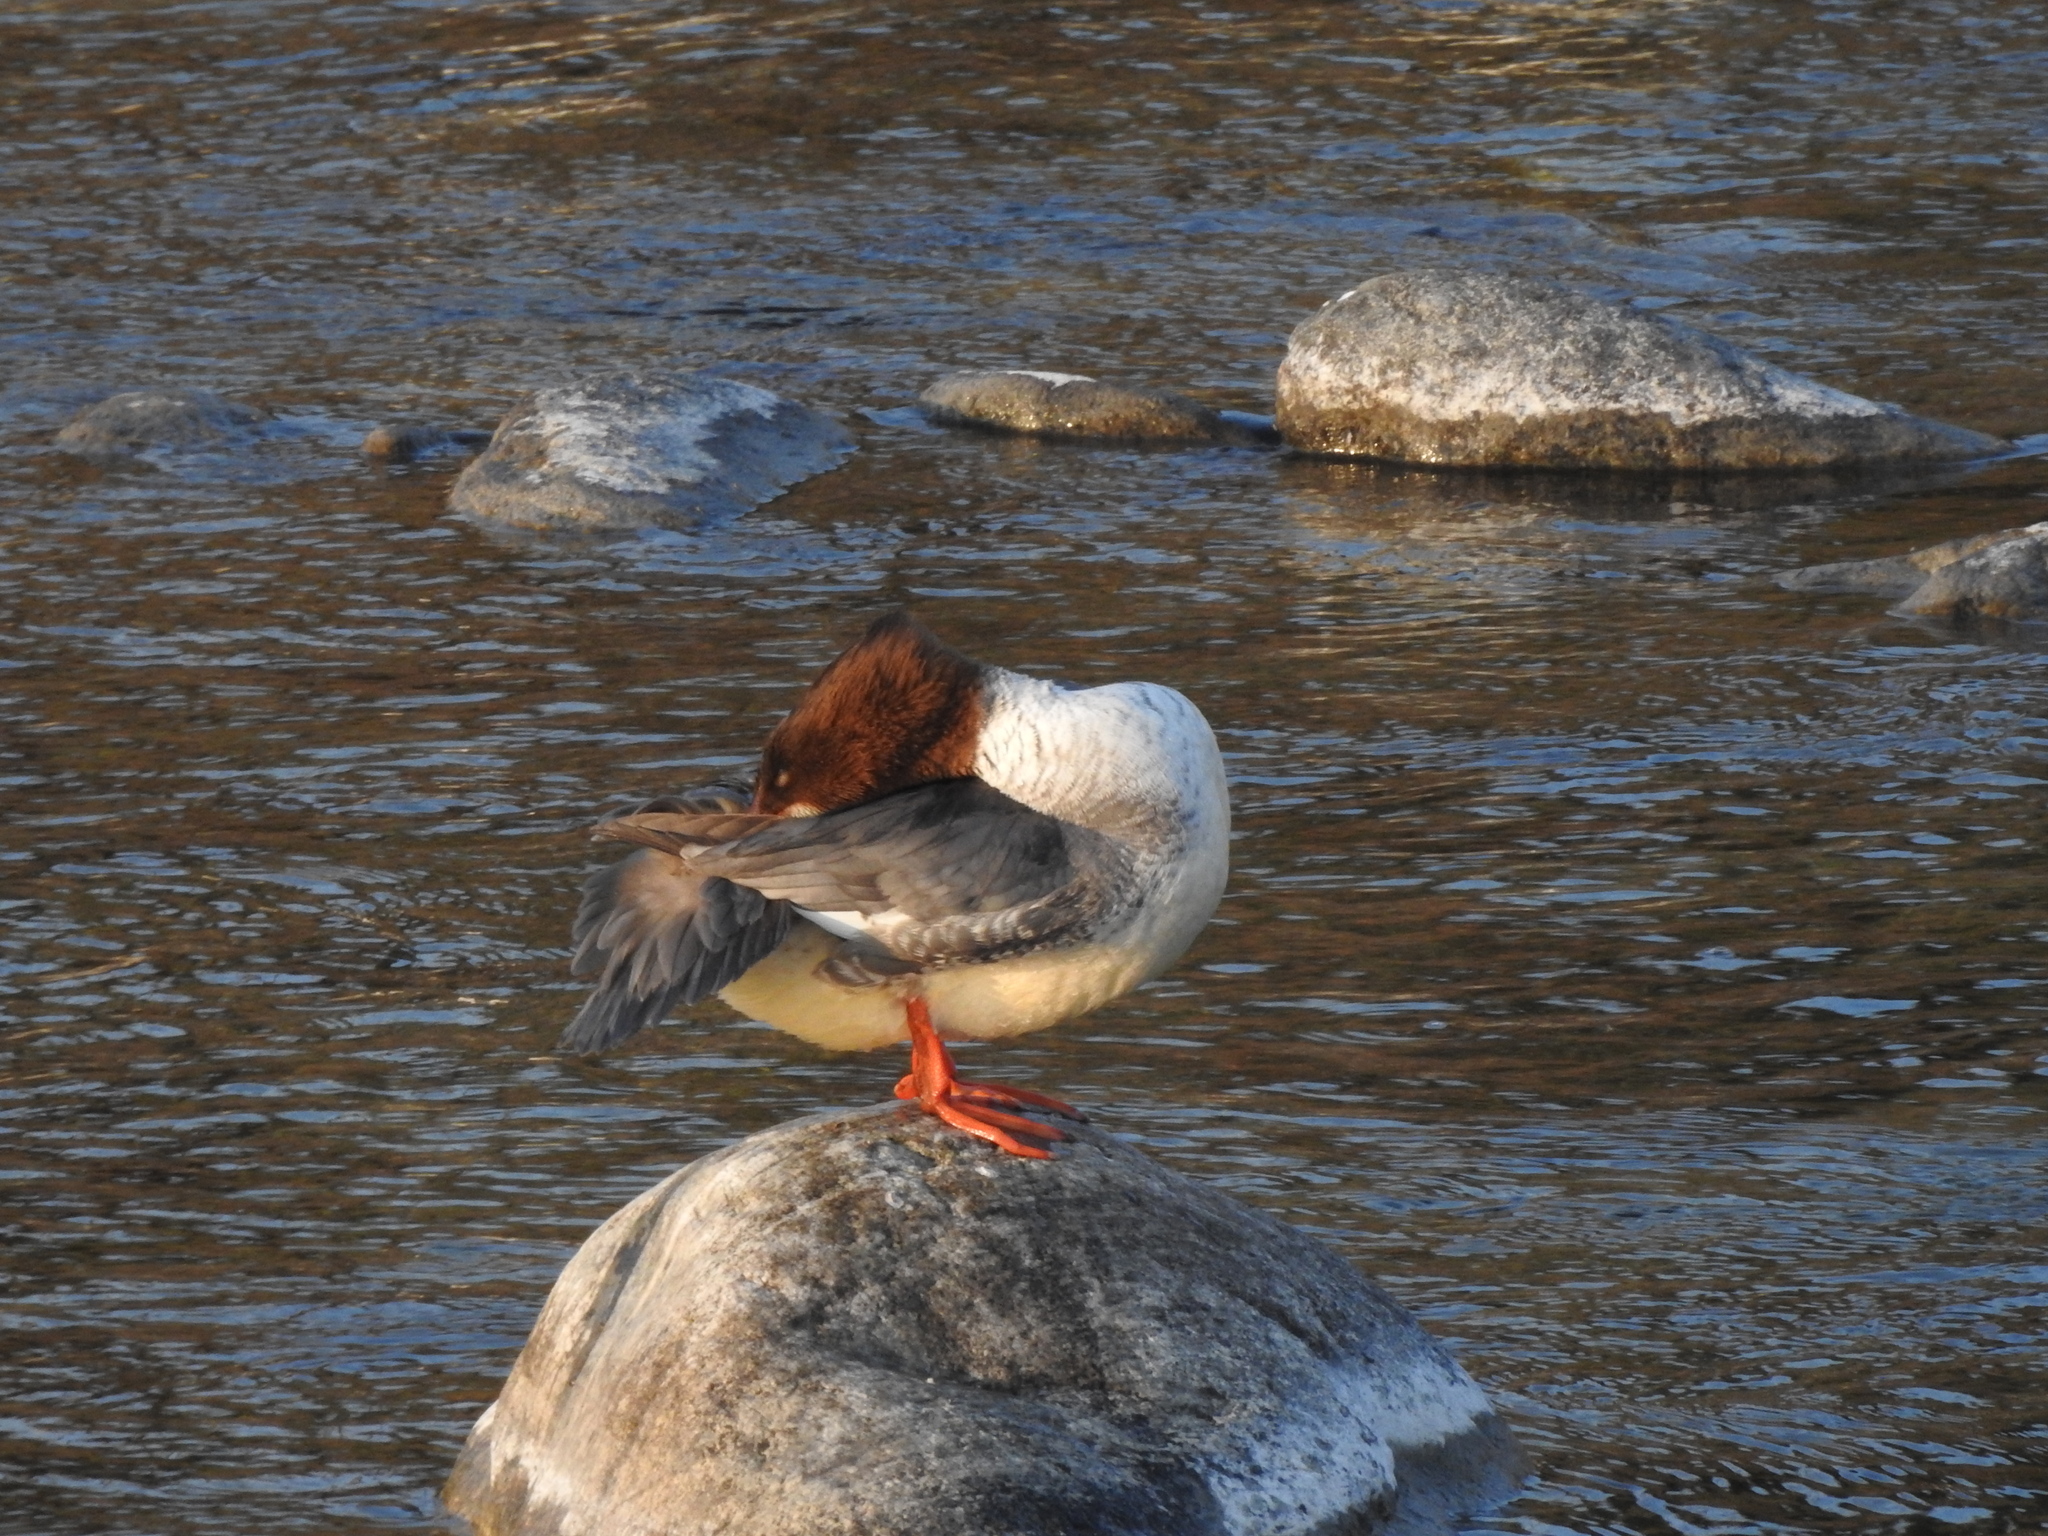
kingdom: Animalia
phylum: Chordata
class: Aves
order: Anseriformes
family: Anatidae
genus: Mergus
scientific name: Mergus merganser
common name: Common merganser
